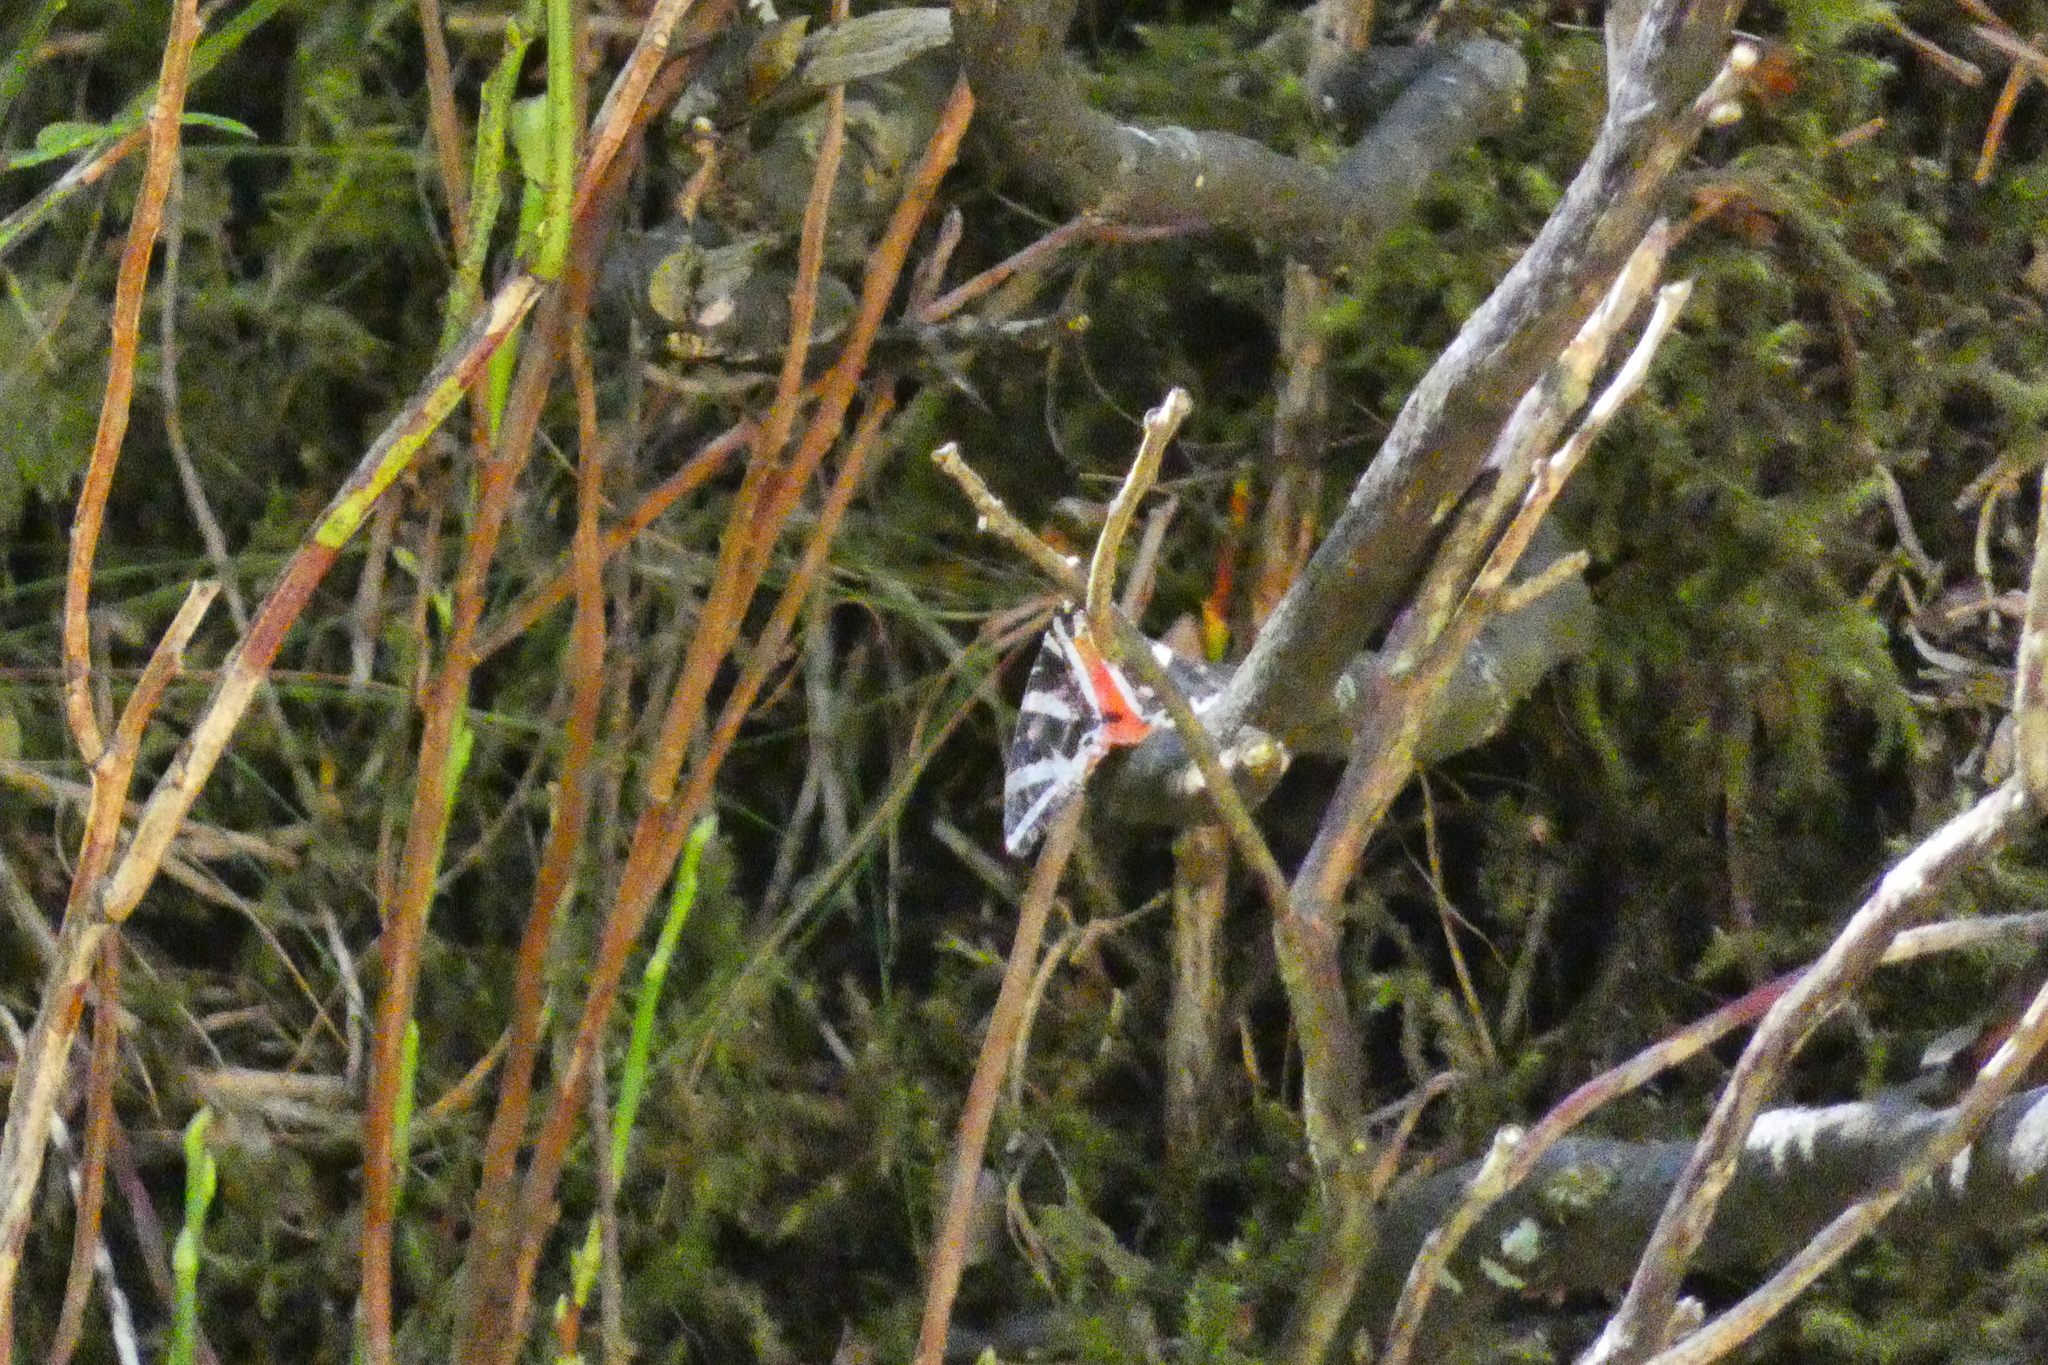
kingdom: Animalia
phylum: Arthropoda
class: Insecta
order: Lepidoptera
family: Erebidae
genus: Euplagia
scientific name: Euplagia quadripunctaria
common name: Jersey tiger
